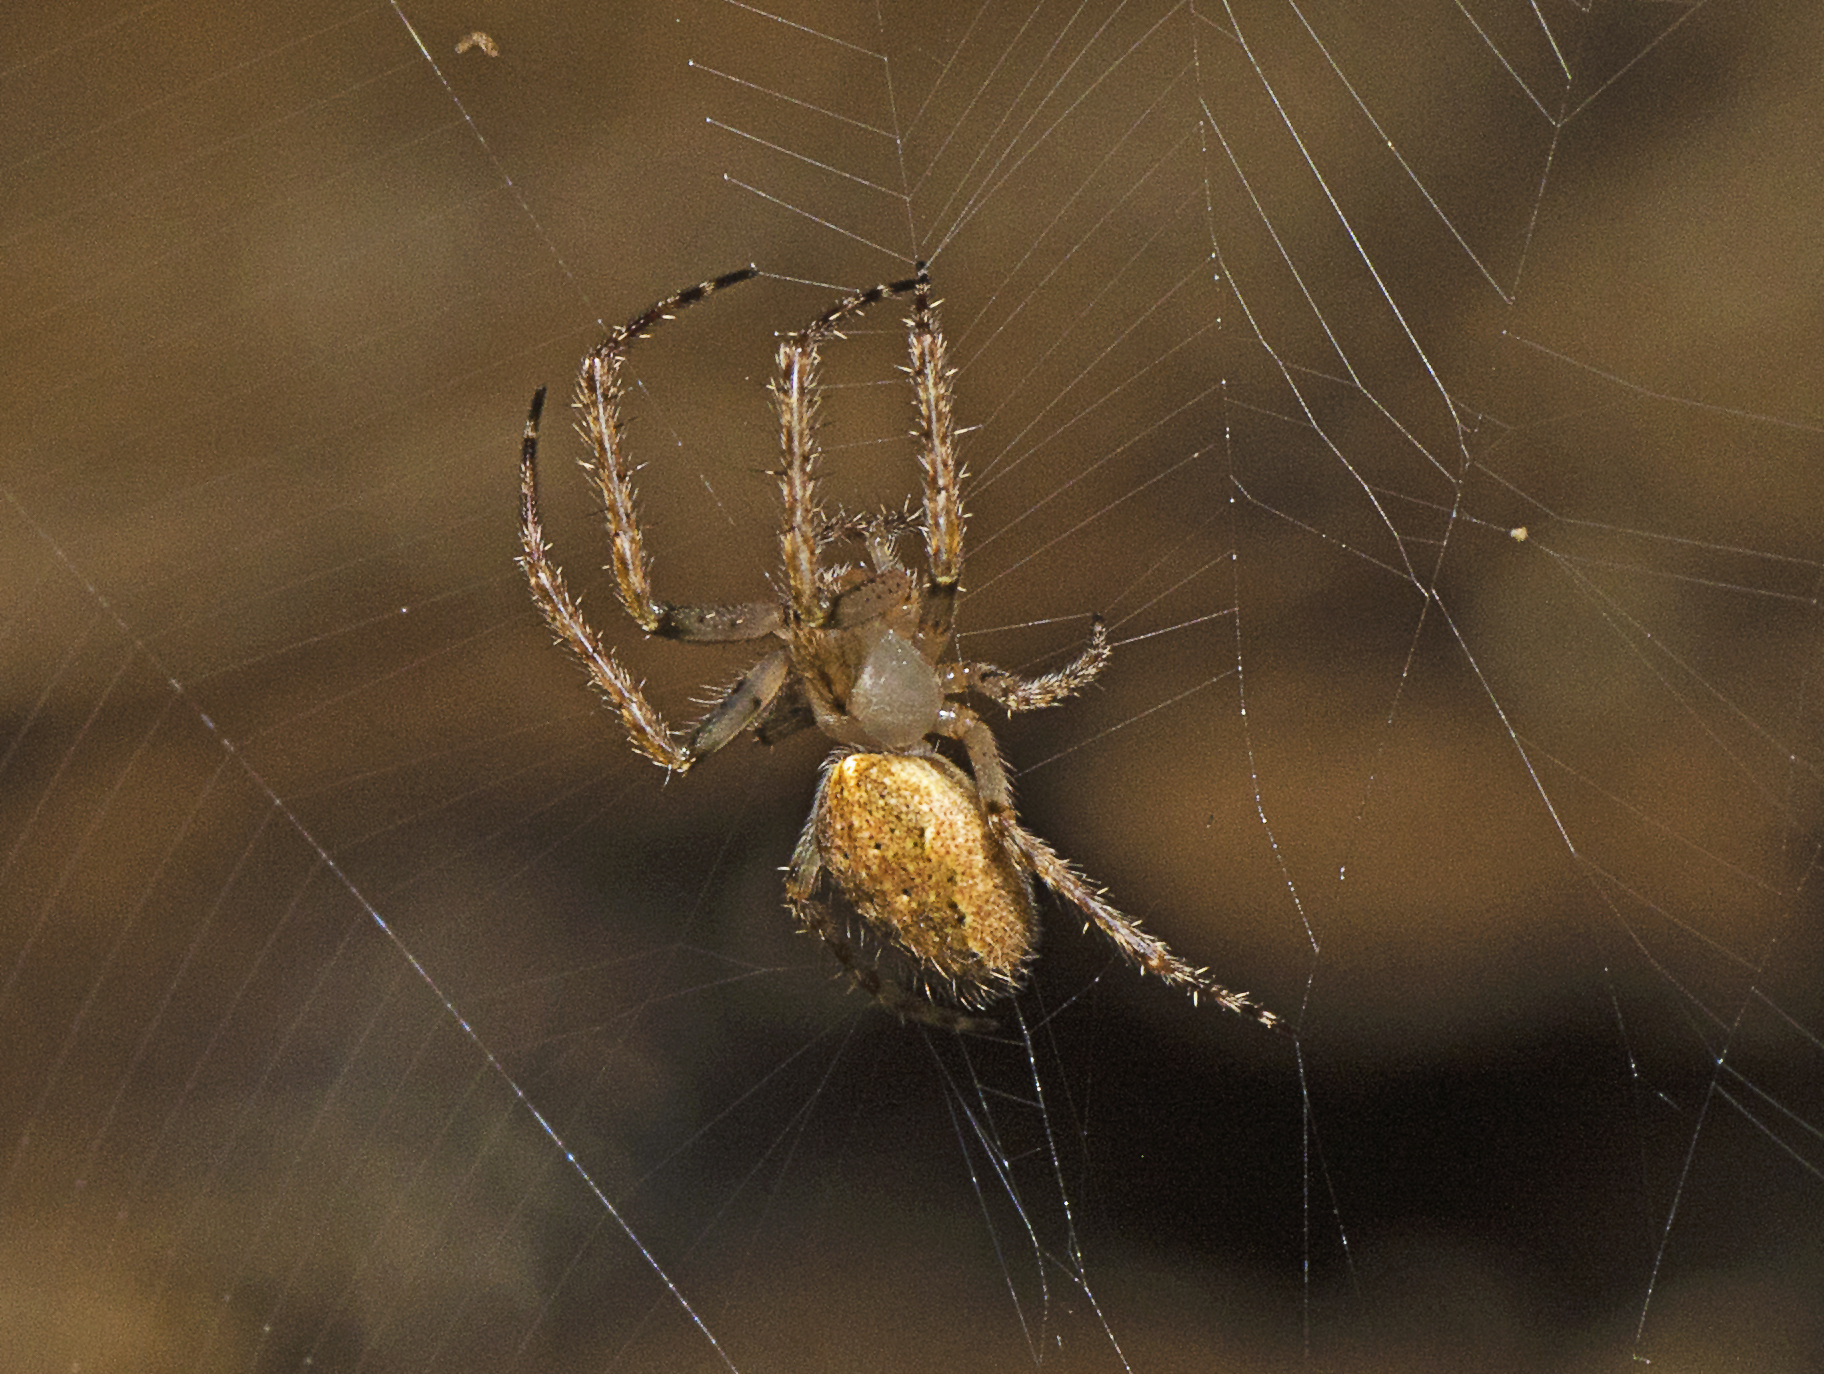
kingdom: Animalia
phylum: Arthropoda
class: Arachnida
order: Araneae
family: Araneidae
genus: Araneus
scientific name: Araneus stolidus
